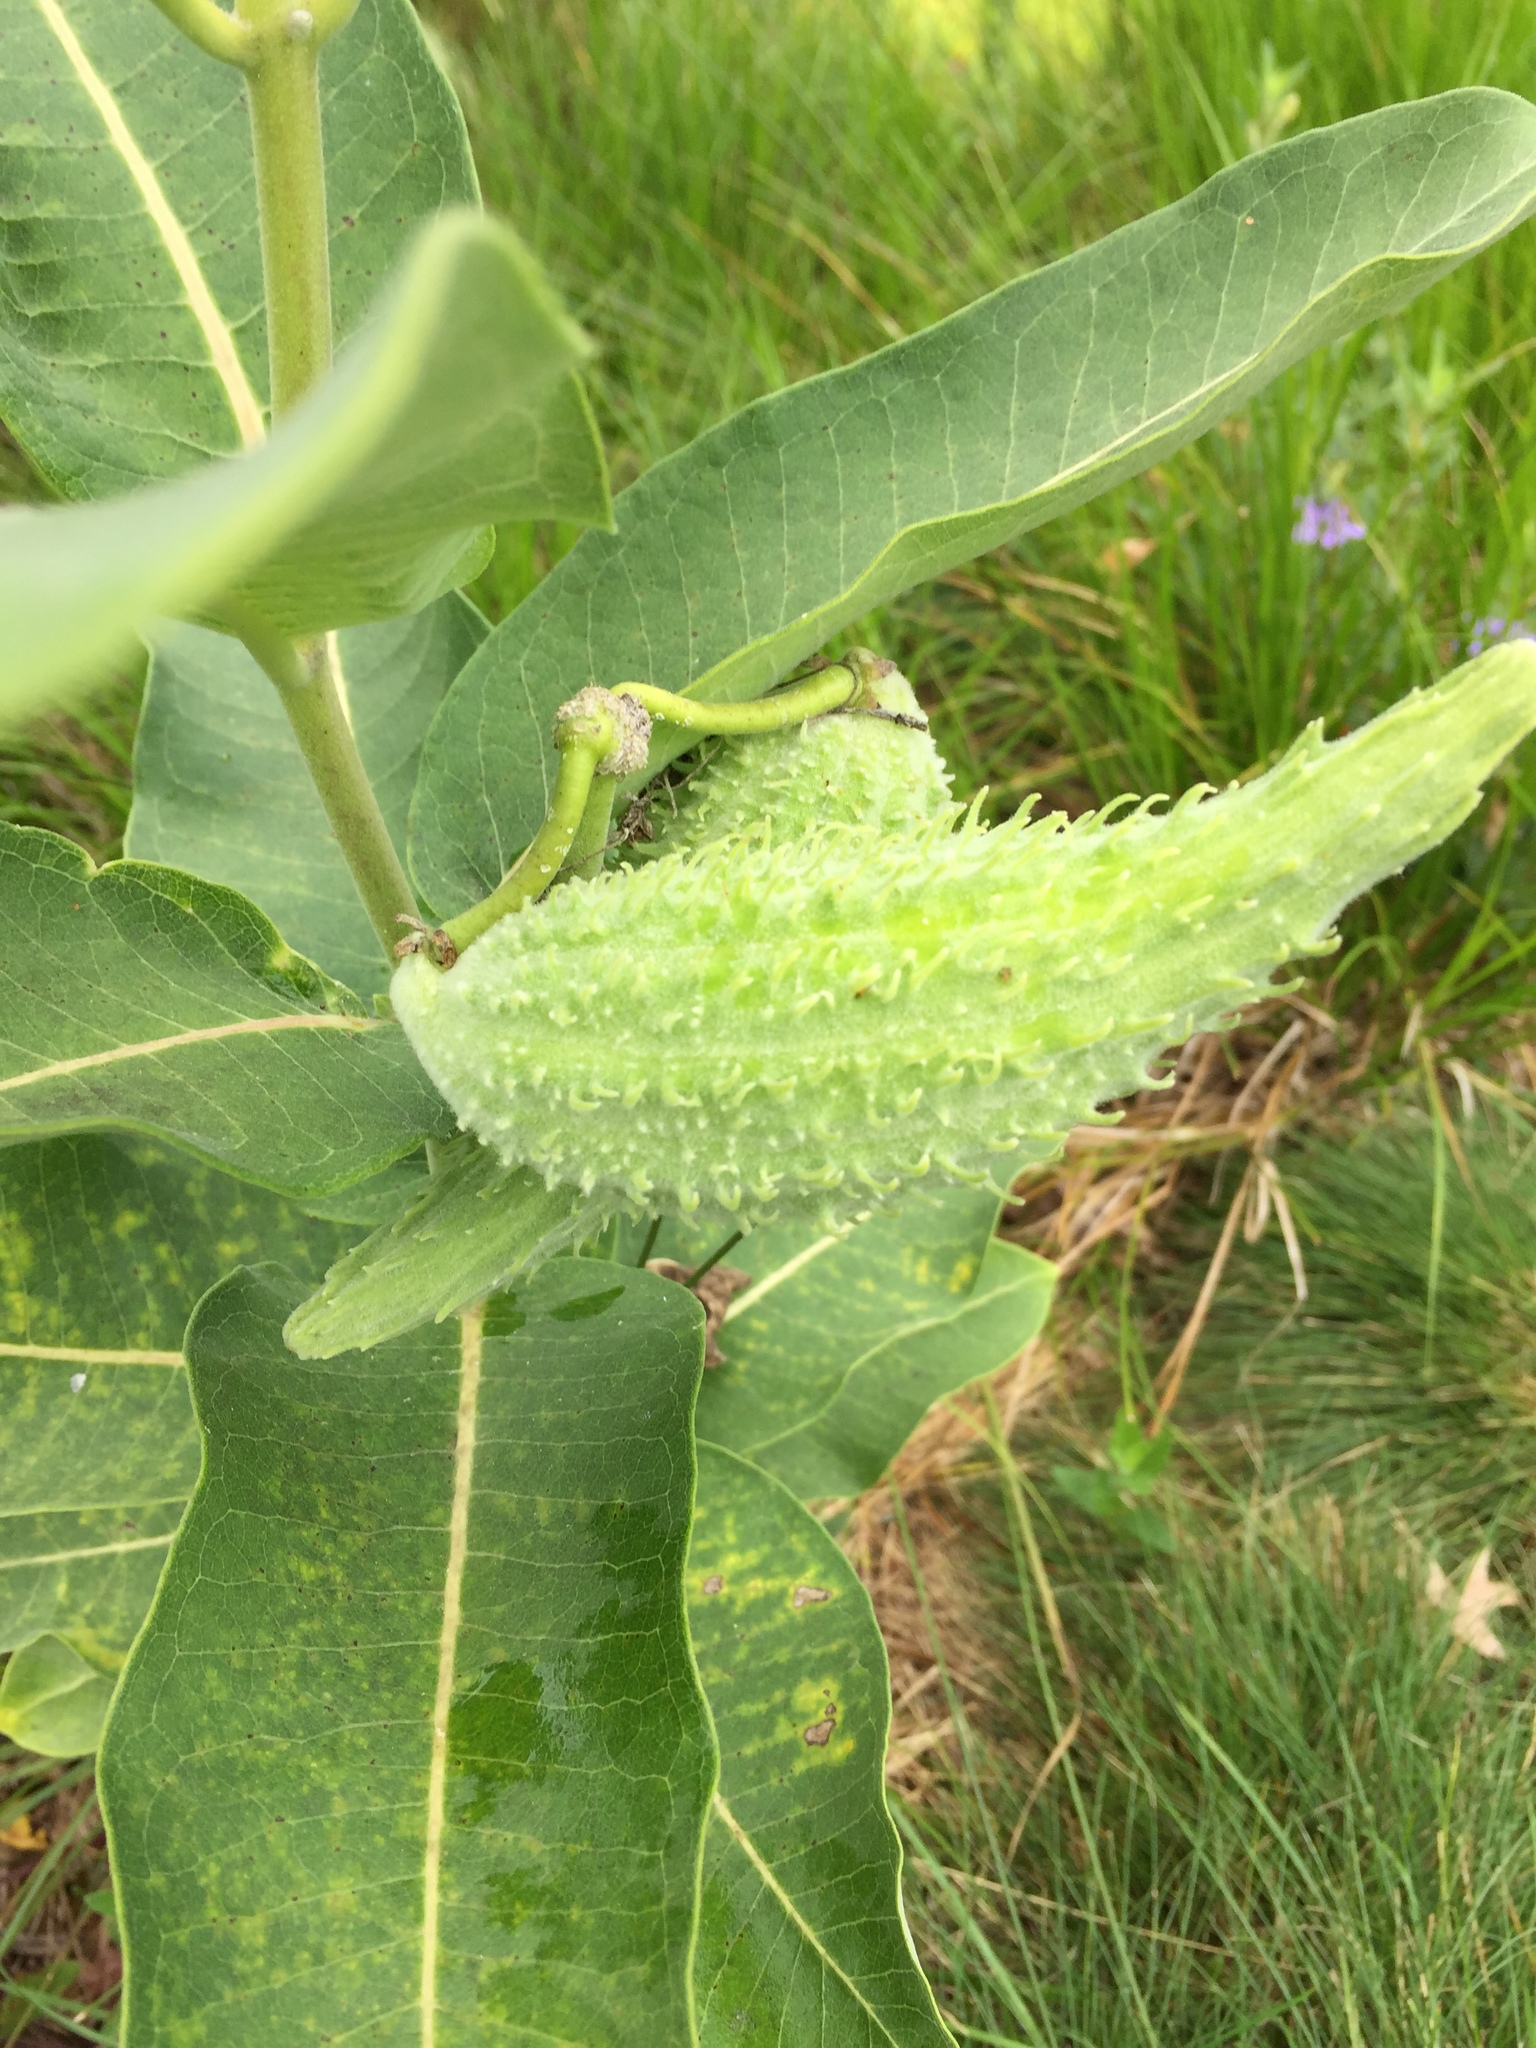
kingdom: Plantae
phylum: Tracheophyta
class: Magnoliopsida
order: Gentianales
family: Apocynaceae
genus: Asclepias
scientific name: Asclepias syriaca
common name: Common milkweed
